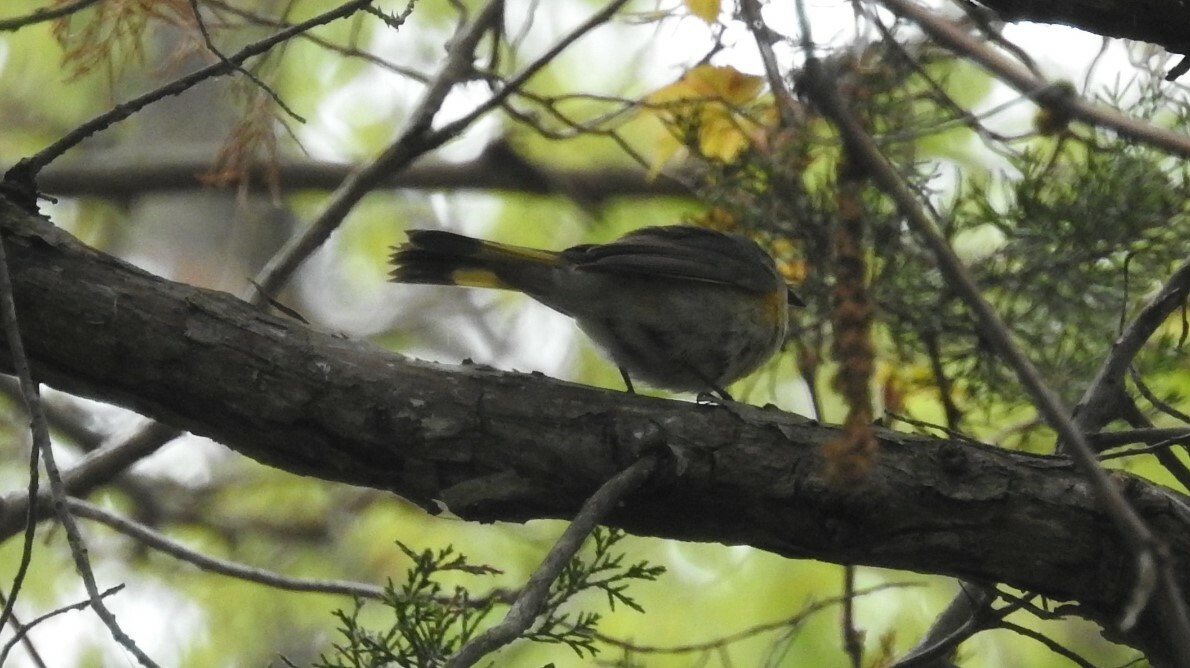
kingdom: Animalia
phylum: Chordata
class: Aves
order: Passeriformes
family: Parulidae
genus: Setophaga
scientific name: Setophaga ruticilla
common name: American redstart
